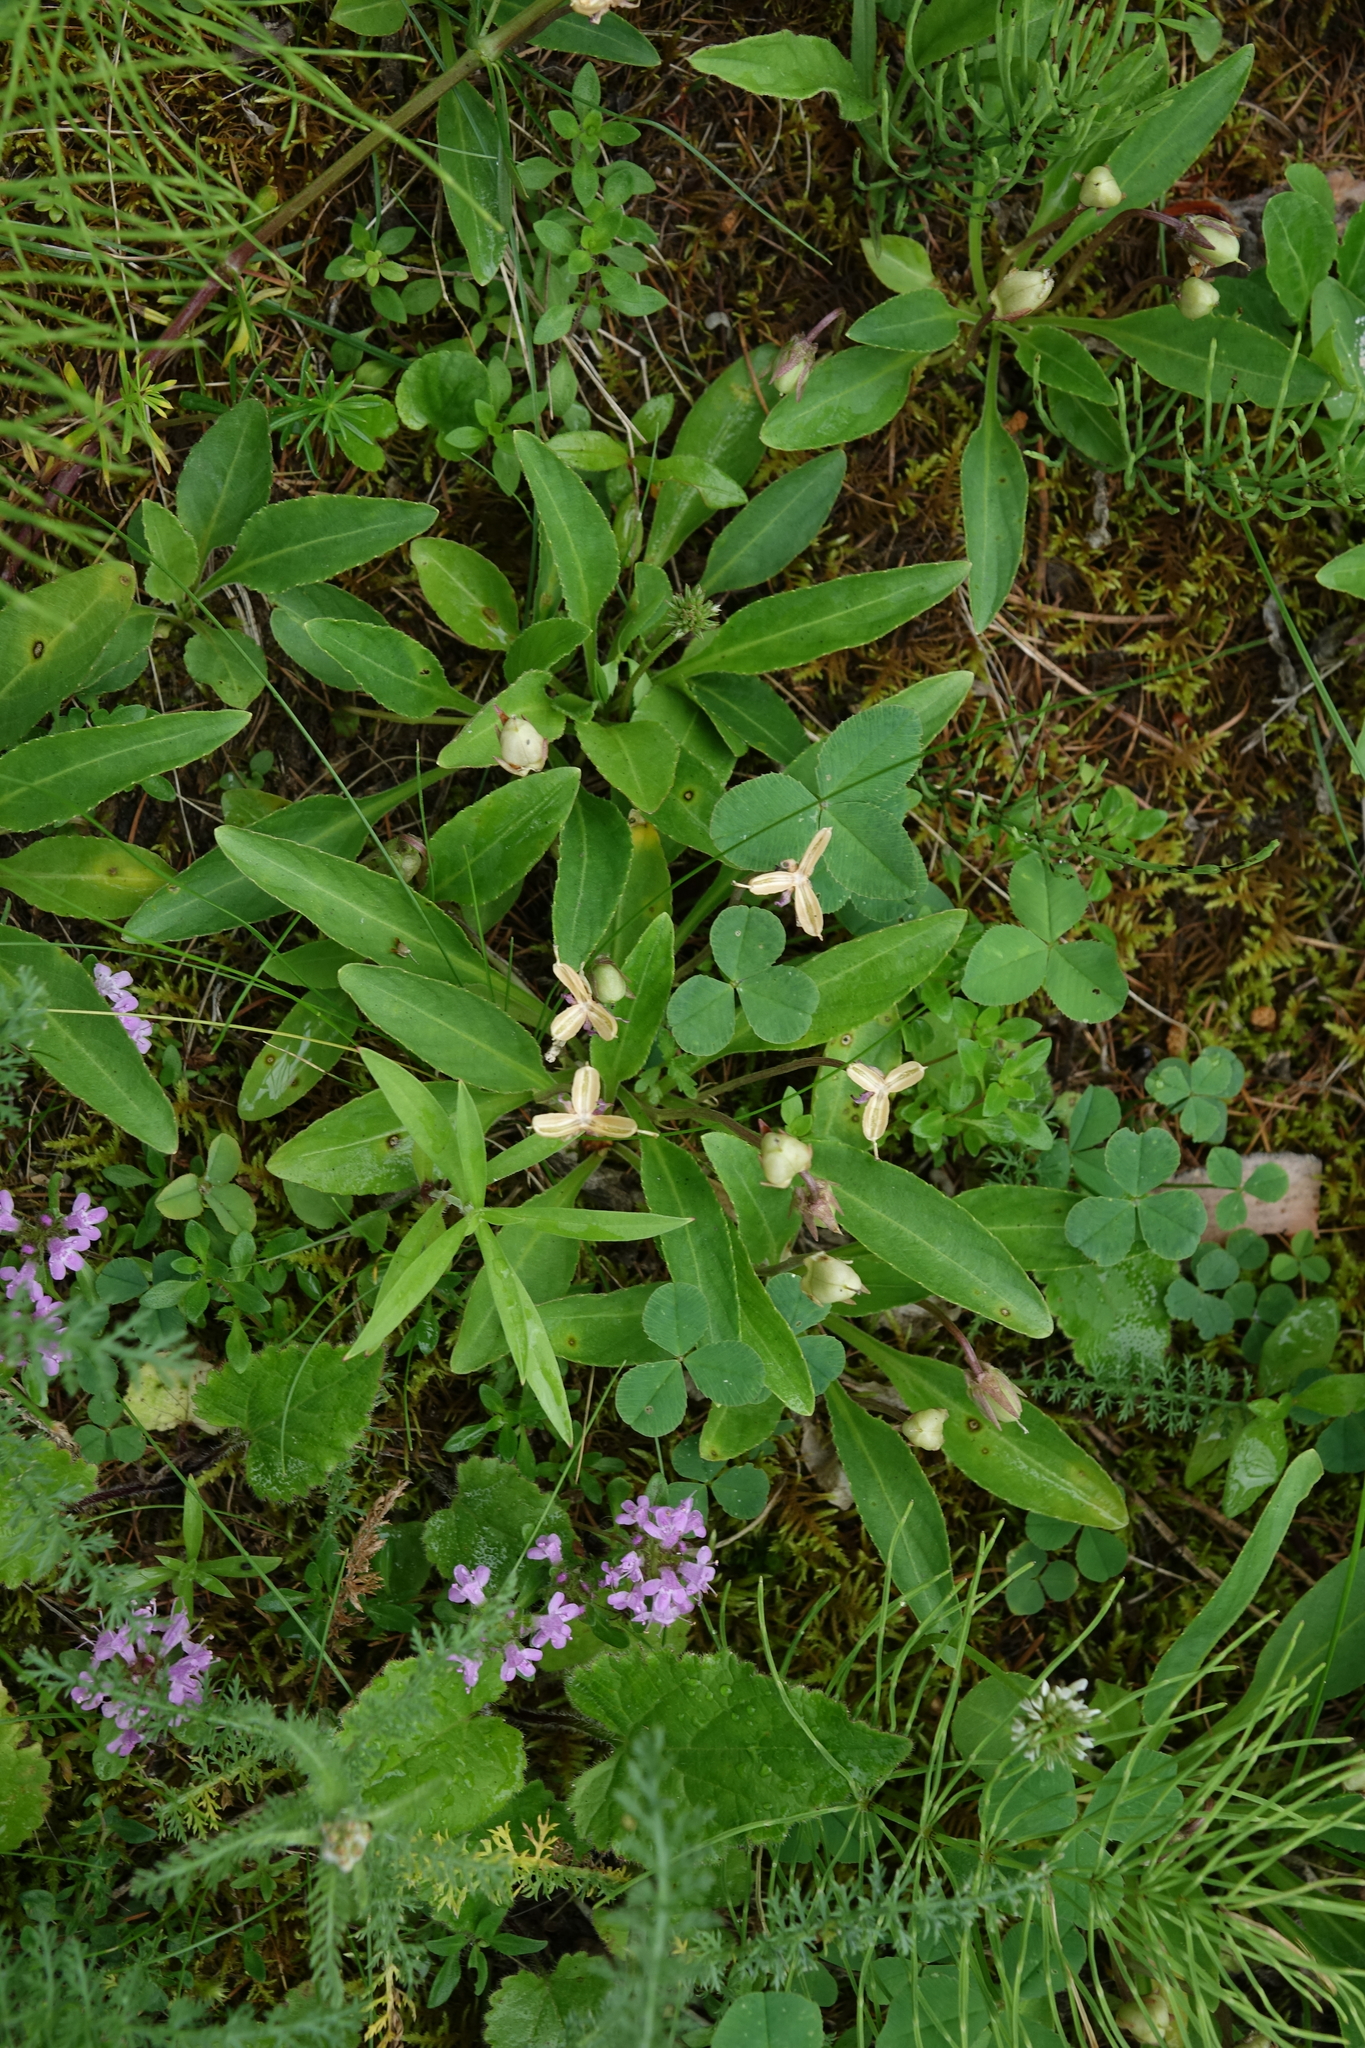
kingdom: Plantae
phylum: Tracheophyta
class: Magnoliopsida
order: Malpighiales
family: Violaceae
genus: Viola
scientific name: Viola gmeliniana
